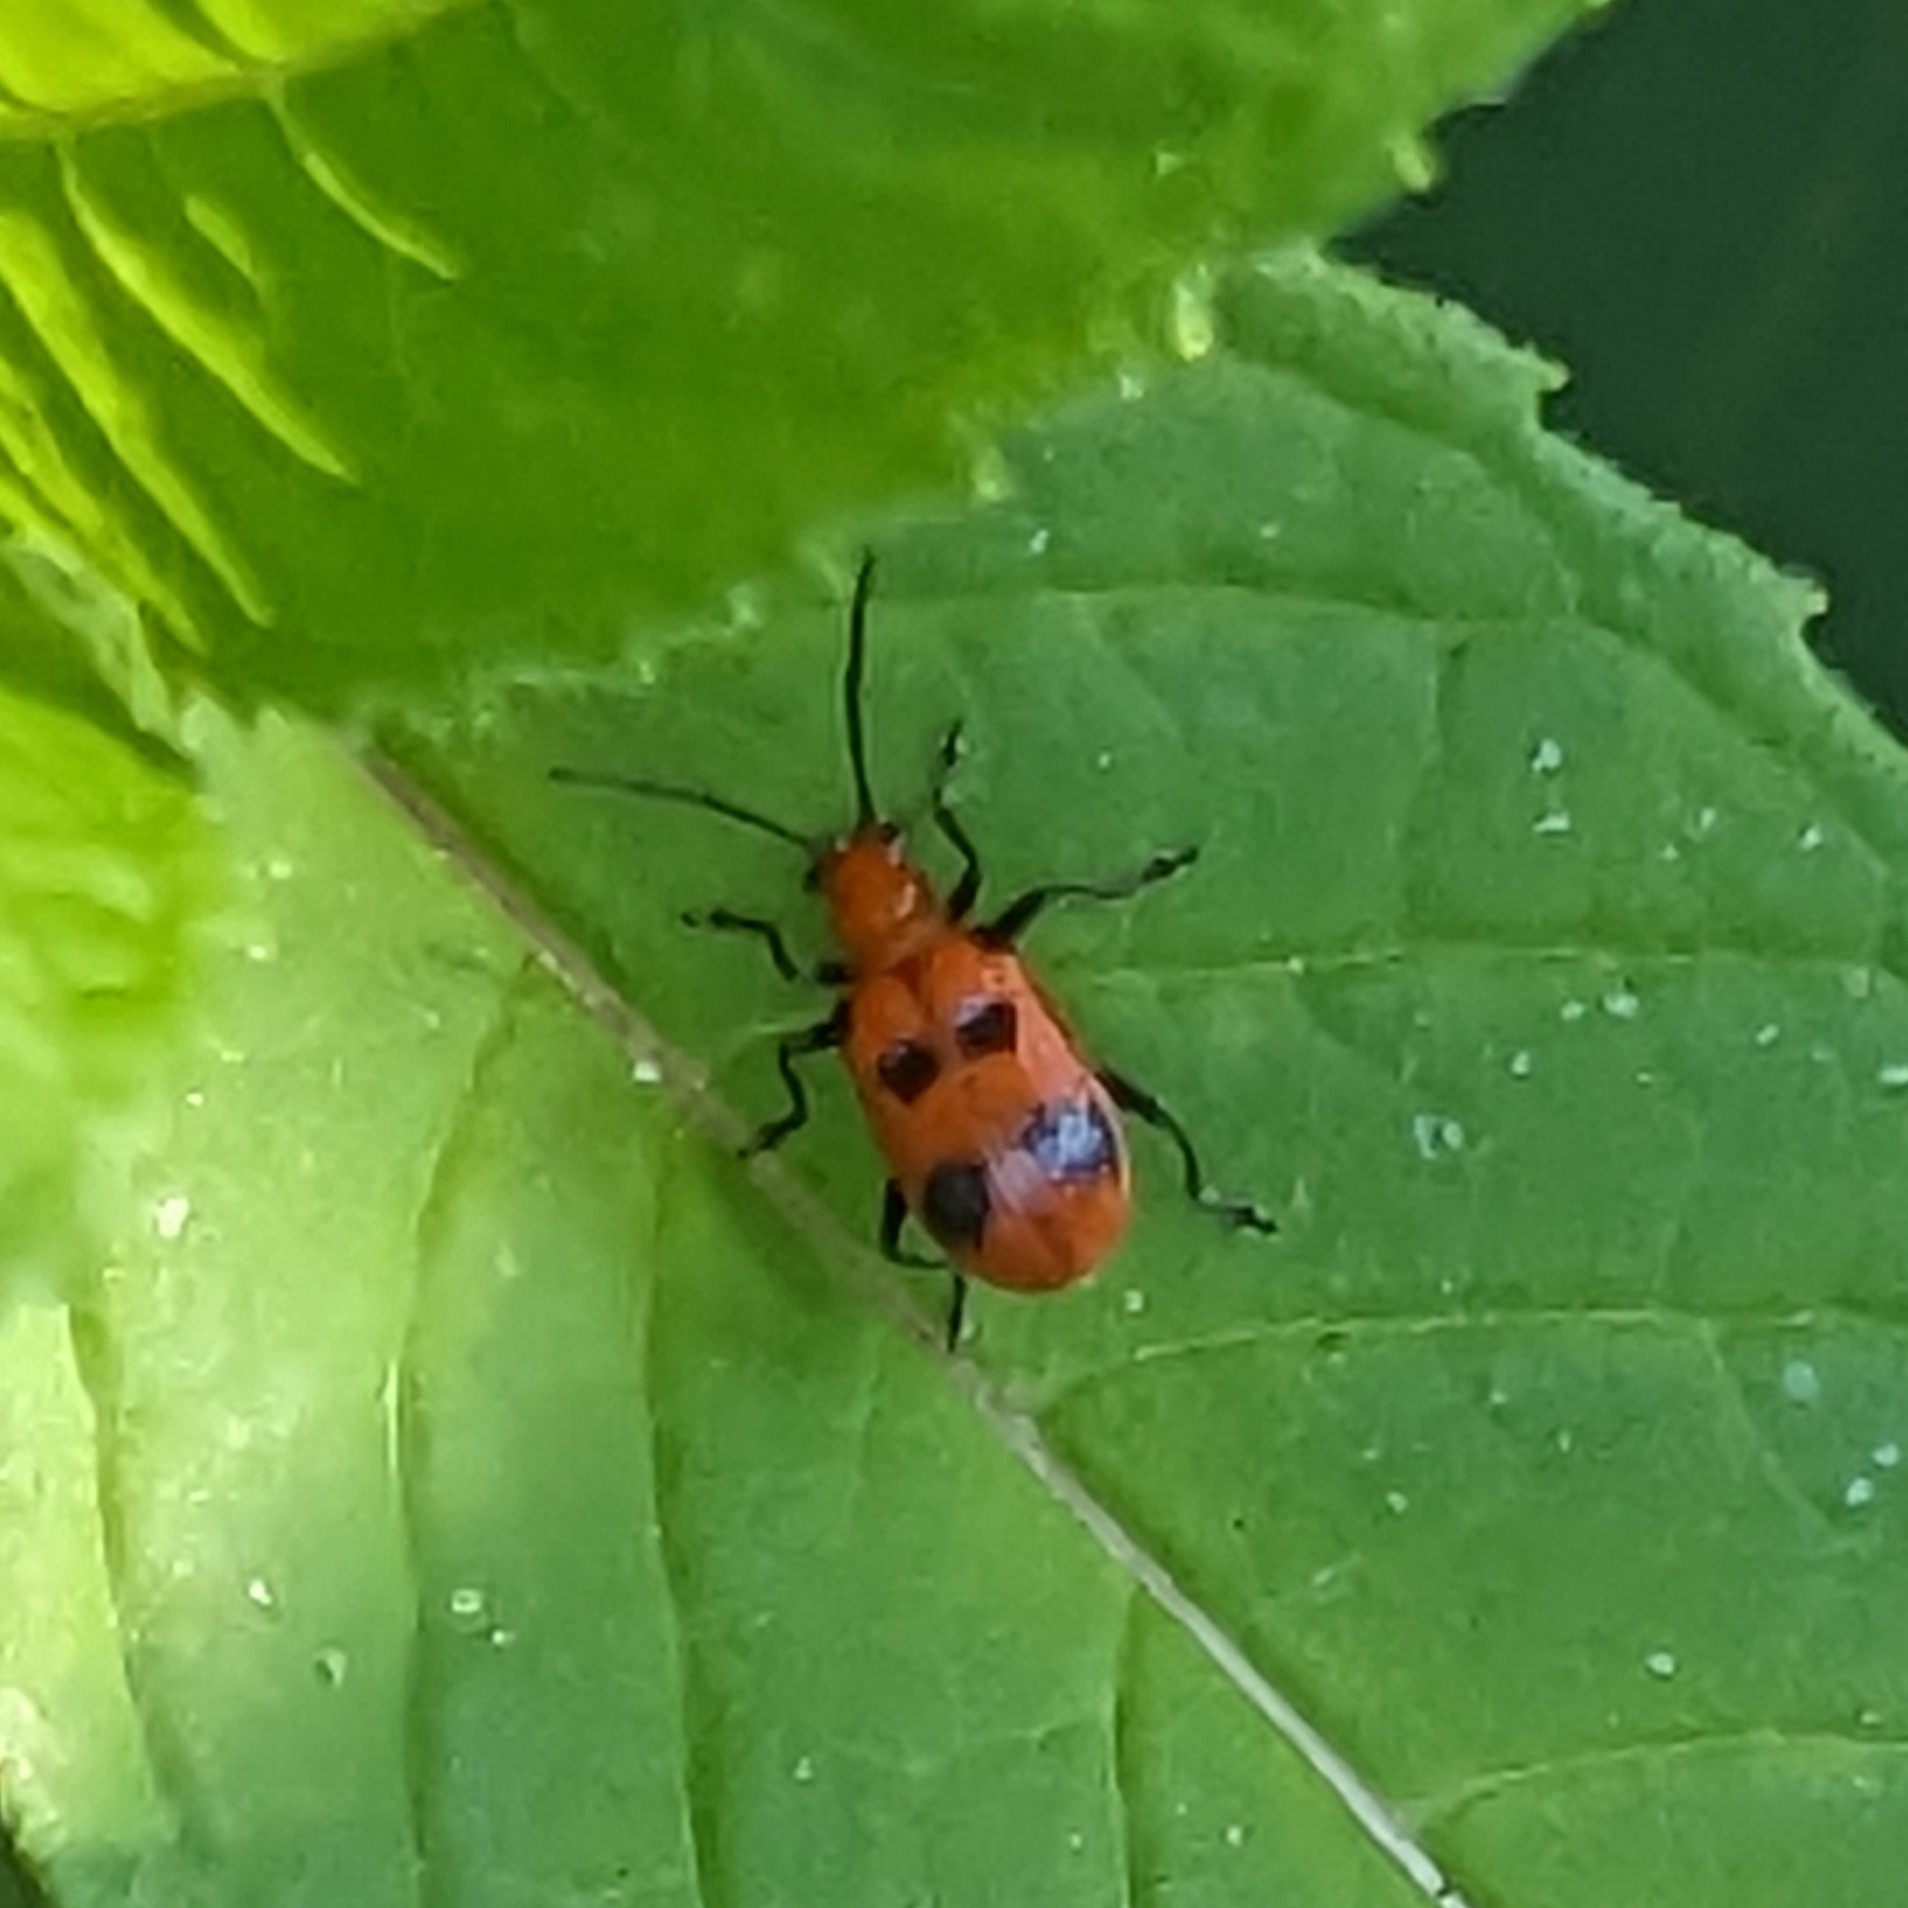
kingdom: Animalia
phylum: Arthropoda
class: Insecta
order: Coleoptera
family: Chrysomelidae
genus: Neolema
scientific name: Neolema sexpunctata
